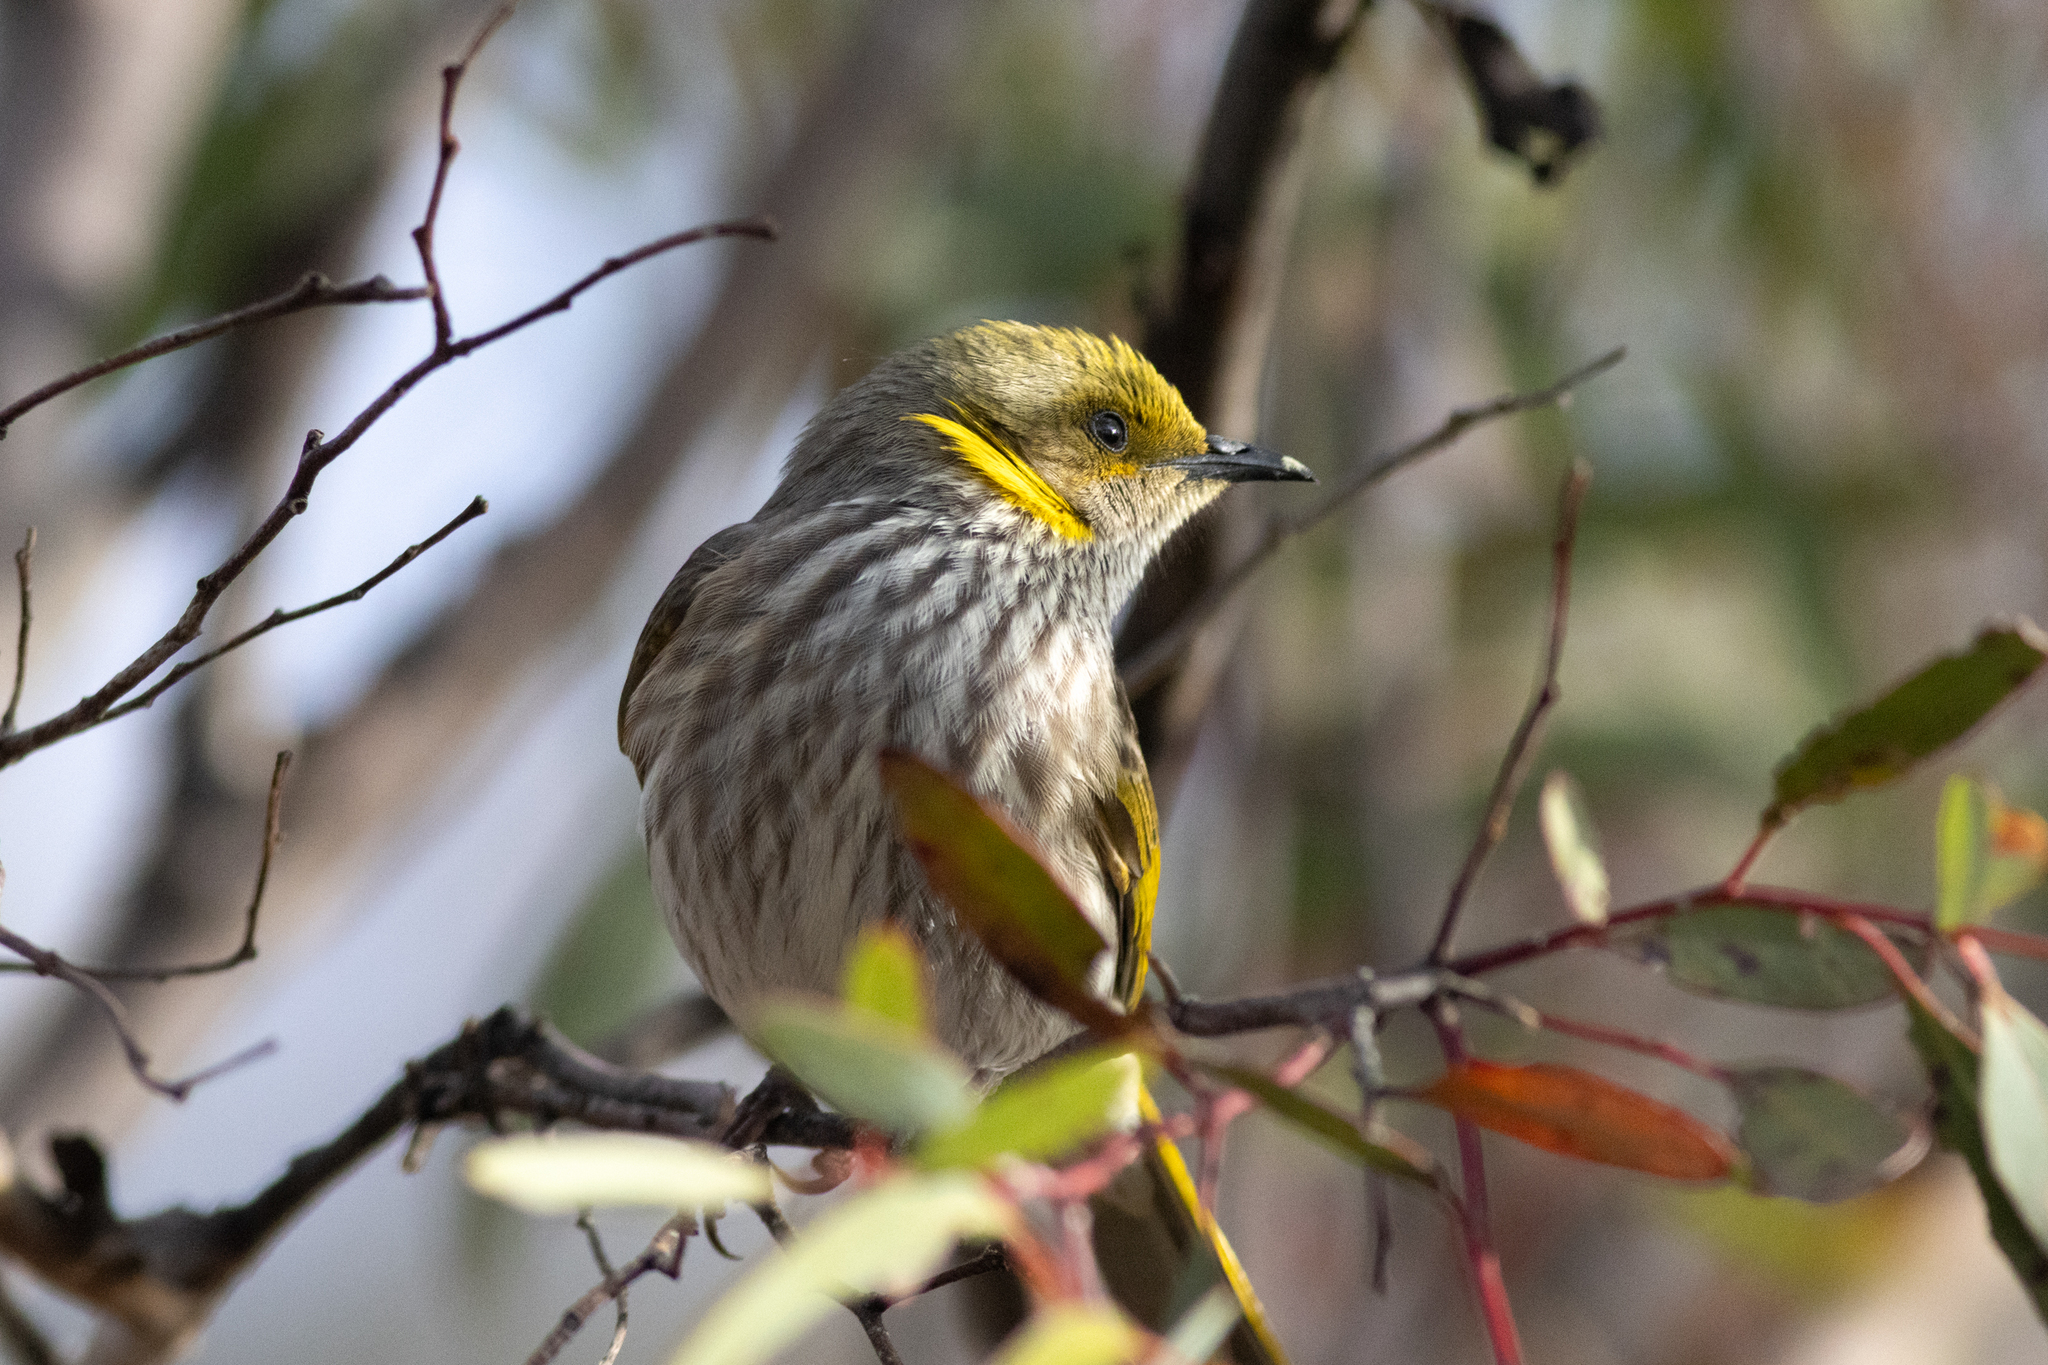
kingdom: Animalia
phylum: Chordata
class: Aves
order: Passeriformes
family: Meliphagidae
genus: Ptilotula
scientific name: Ptilotula ornata
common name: Yellow-plumed honeyeater
